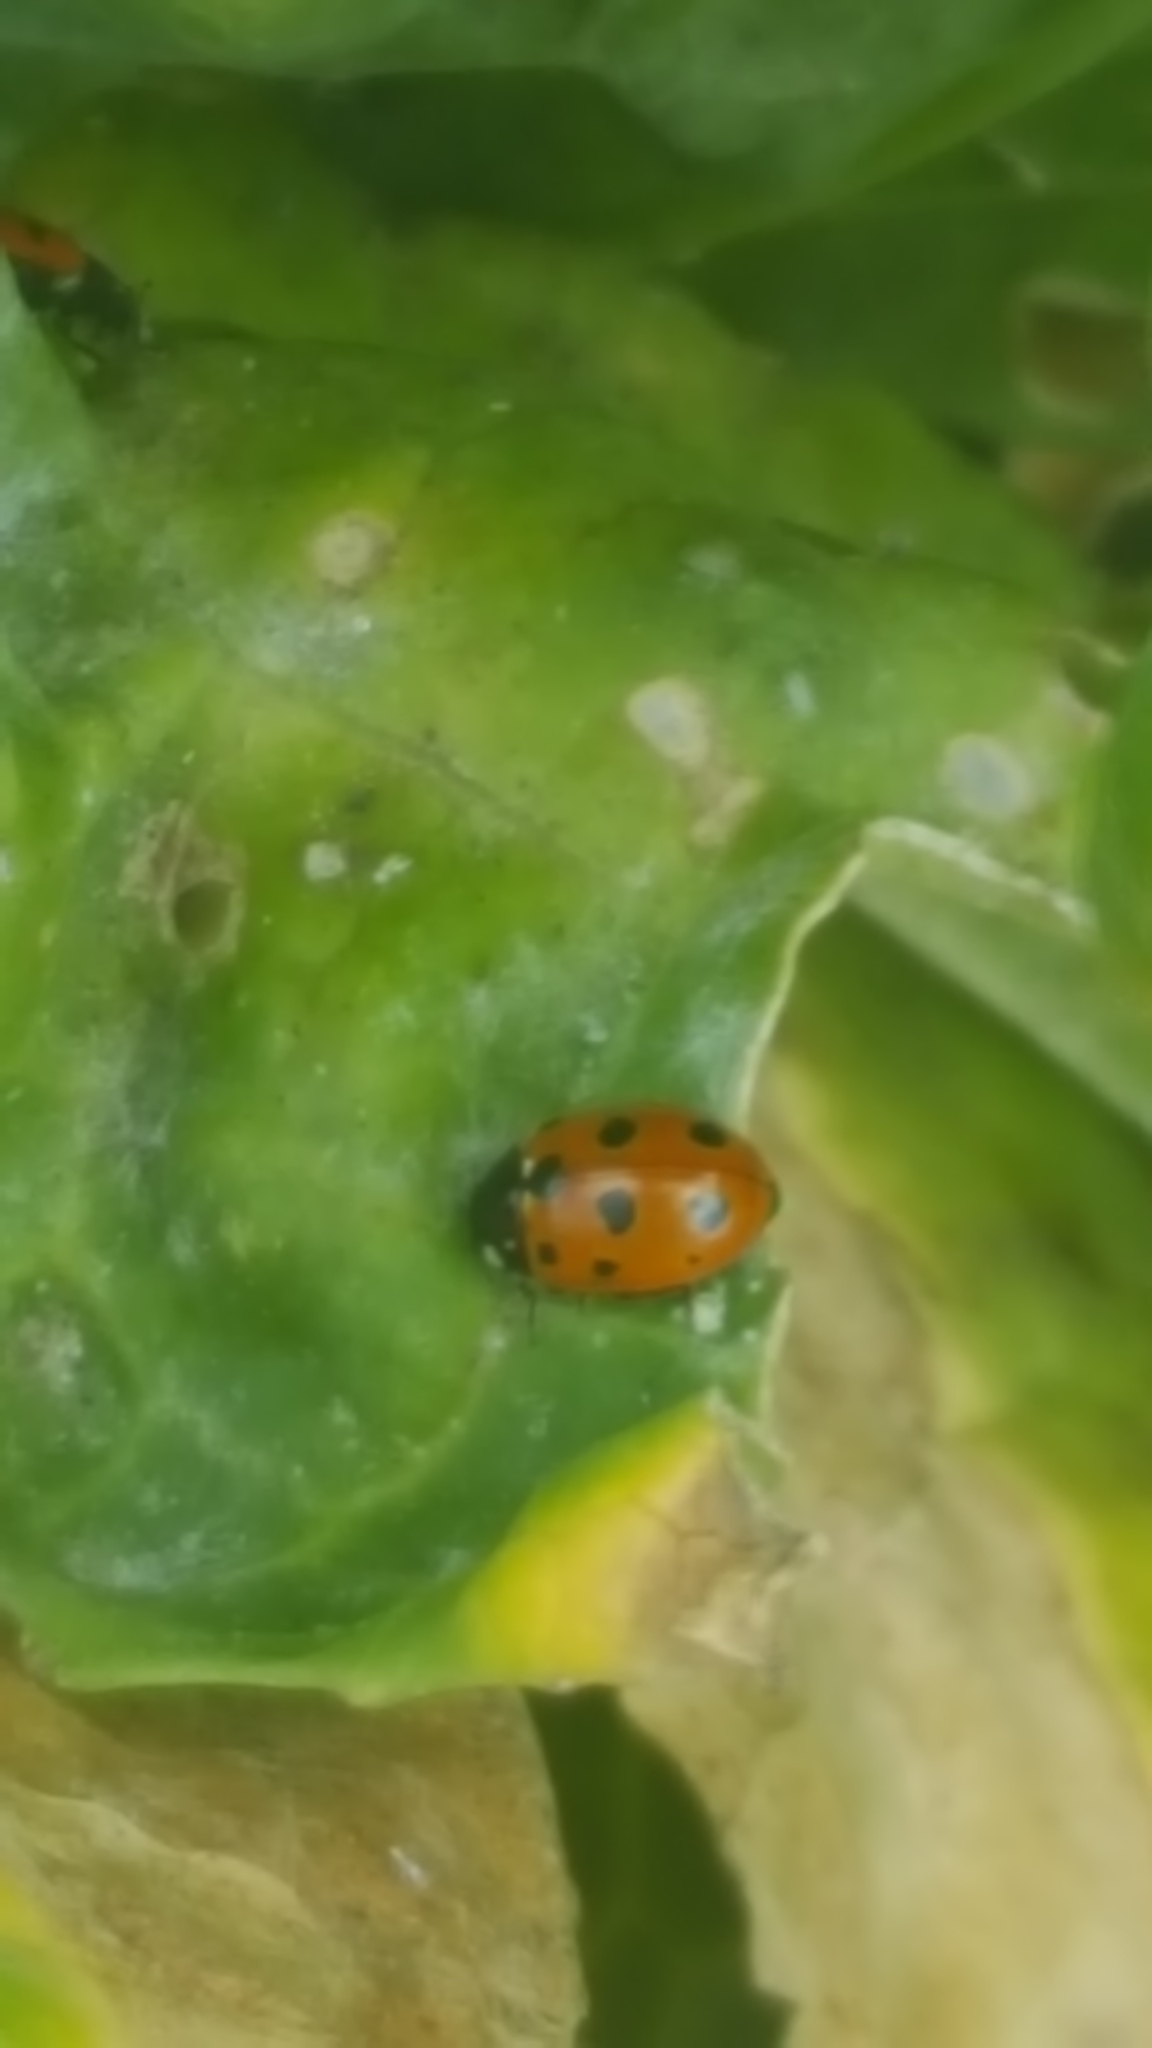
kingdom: Animalia
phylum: Arthropoda
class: Insecta
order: Coleoptera
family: Coccinellidae
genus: Coccinella
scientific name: Coccinella undecimpunctata
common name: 11-spot ladybird
